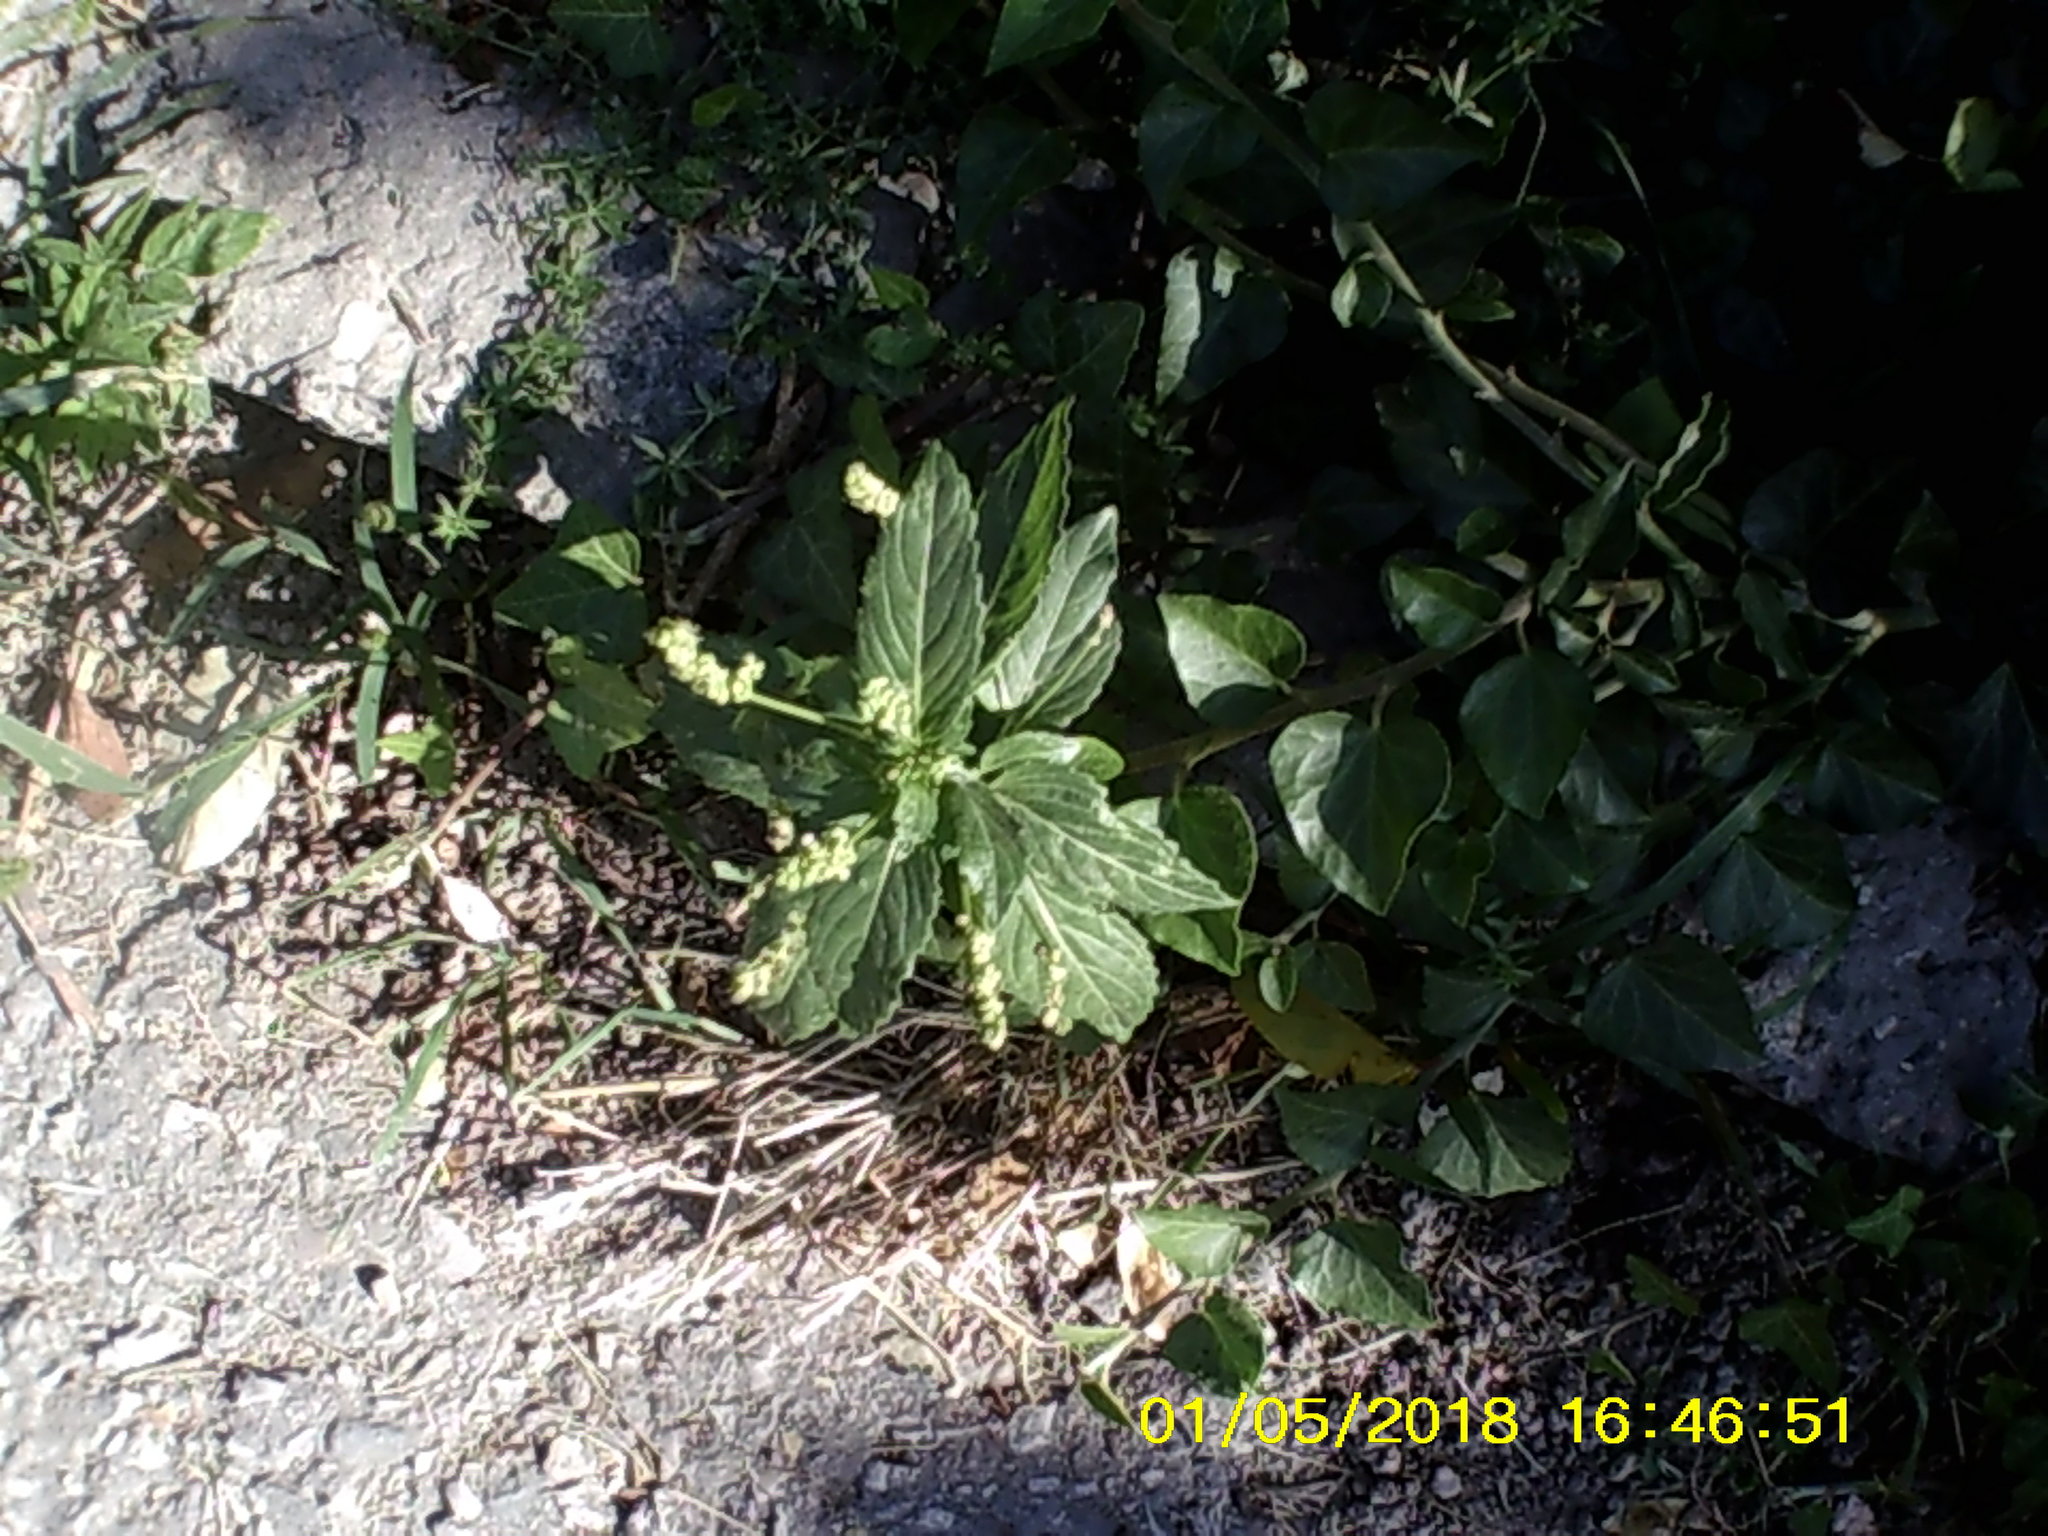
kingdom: Plantae
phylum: Tracheophyta
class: Magnoliopsida
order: Malpighiales
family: Euphorbiaceae
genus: Mercurialis
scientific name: Mercurialis annua
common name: Annual mercury
